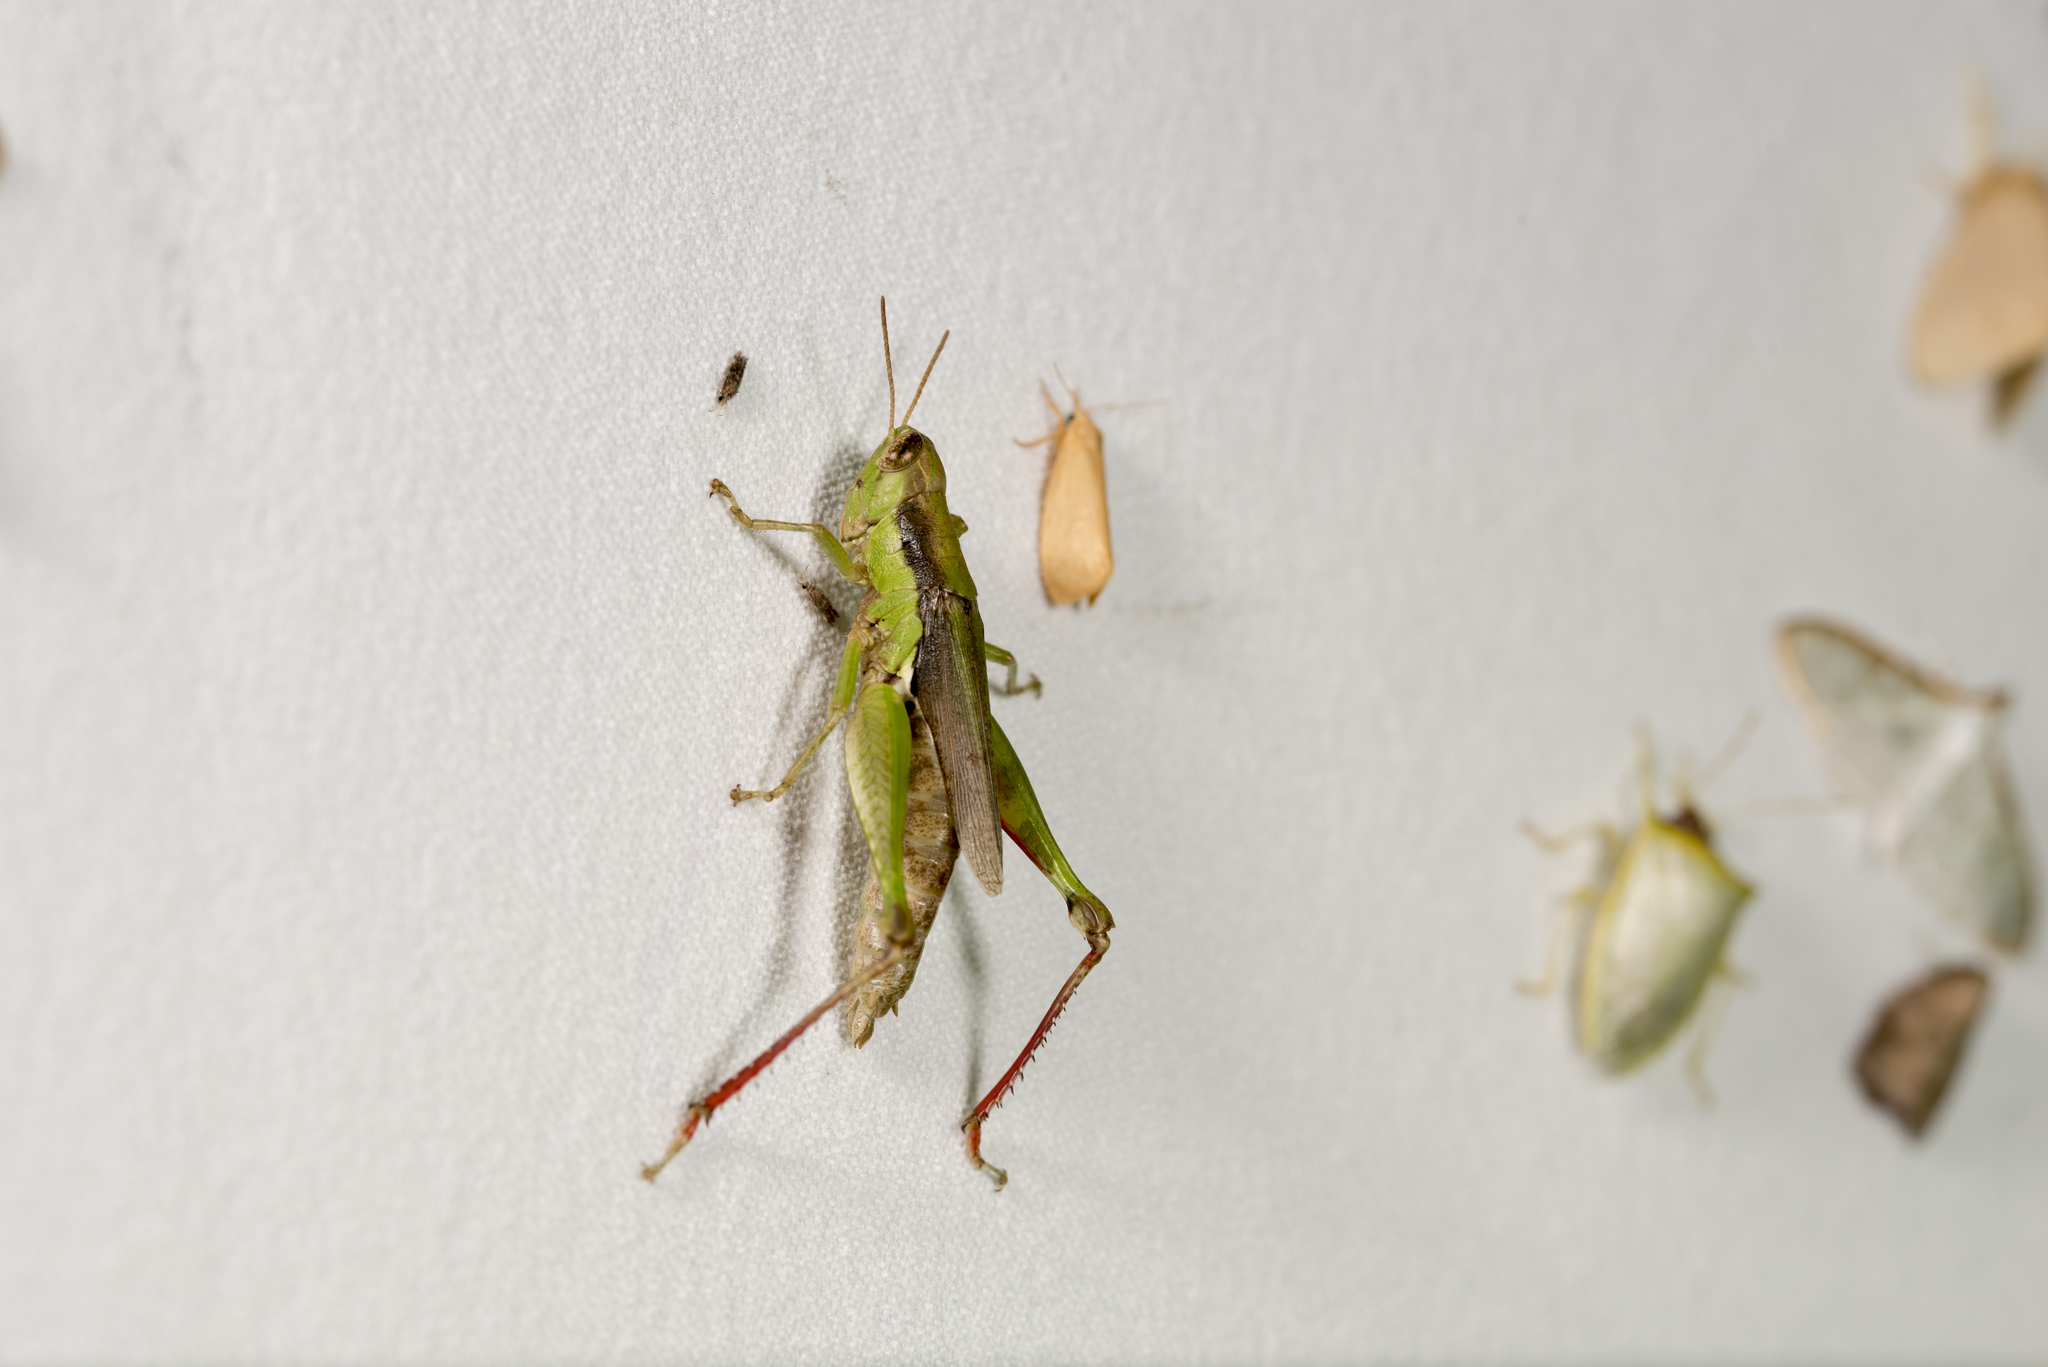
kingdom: Animalia
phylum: Arthropoda
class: Insecta
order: Orthoptera
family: Acrididae
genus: Pseudoxya
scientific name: Pseudoxya diminuta
